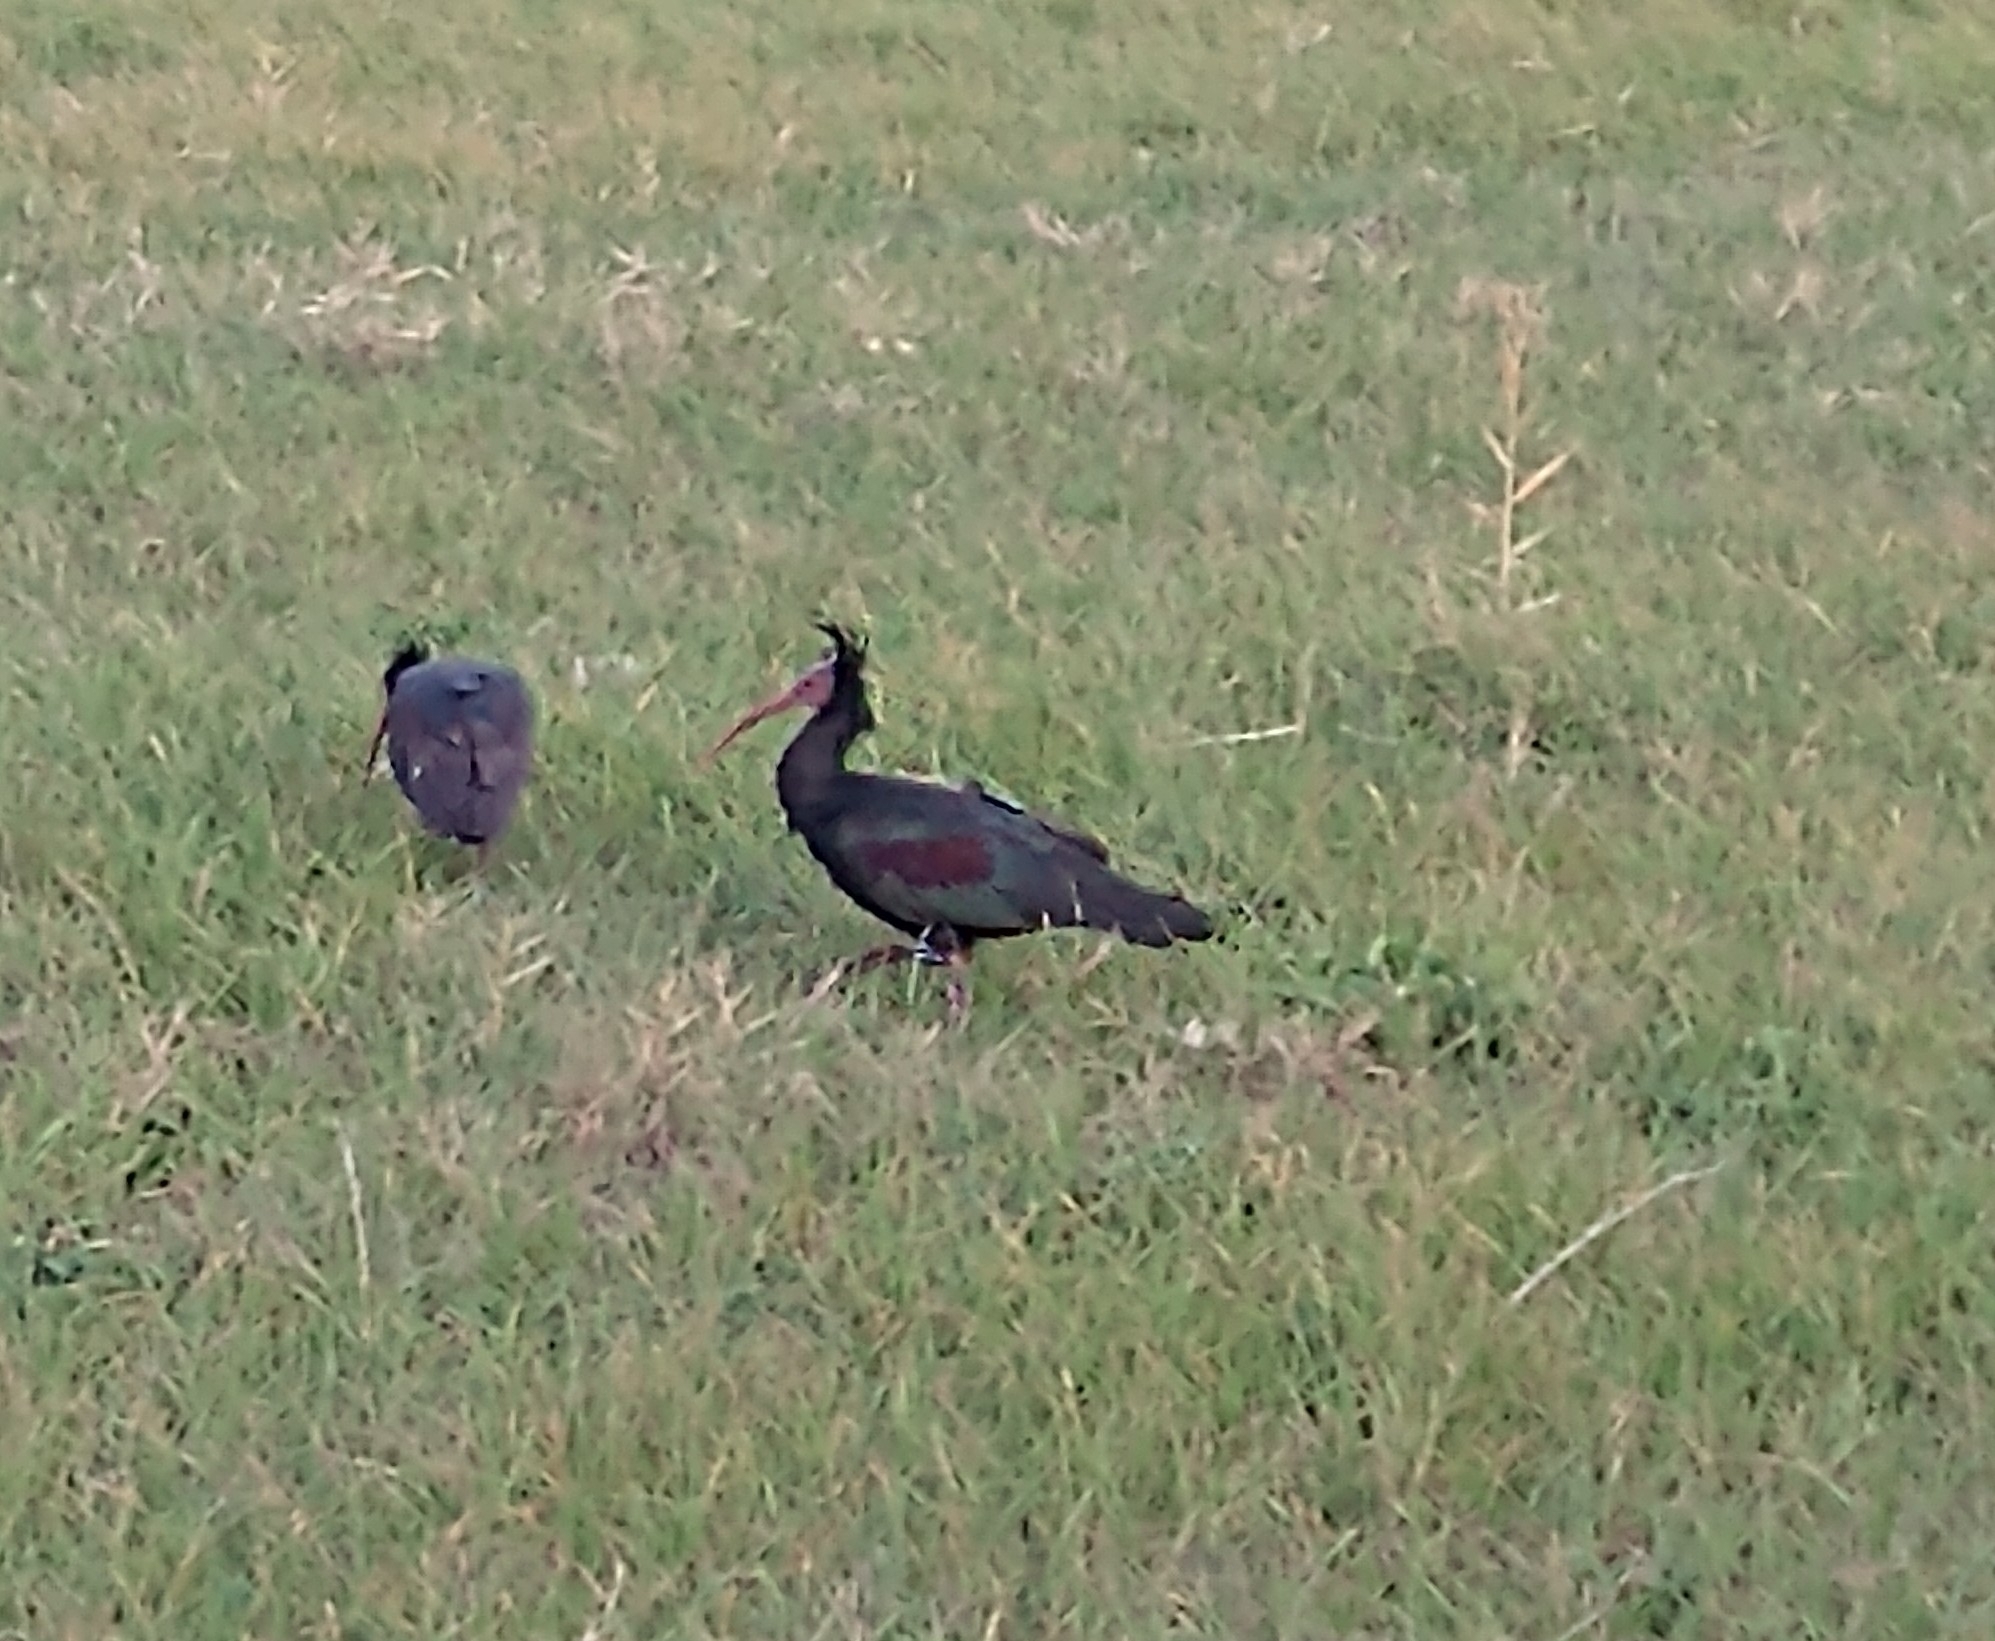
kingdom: Animalia
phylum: Chordata
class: Aves
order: Pelecaniformes
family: Threskiornithidae
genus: Geronticus
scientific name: Geronticus eremita
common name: Northern bald ibis
